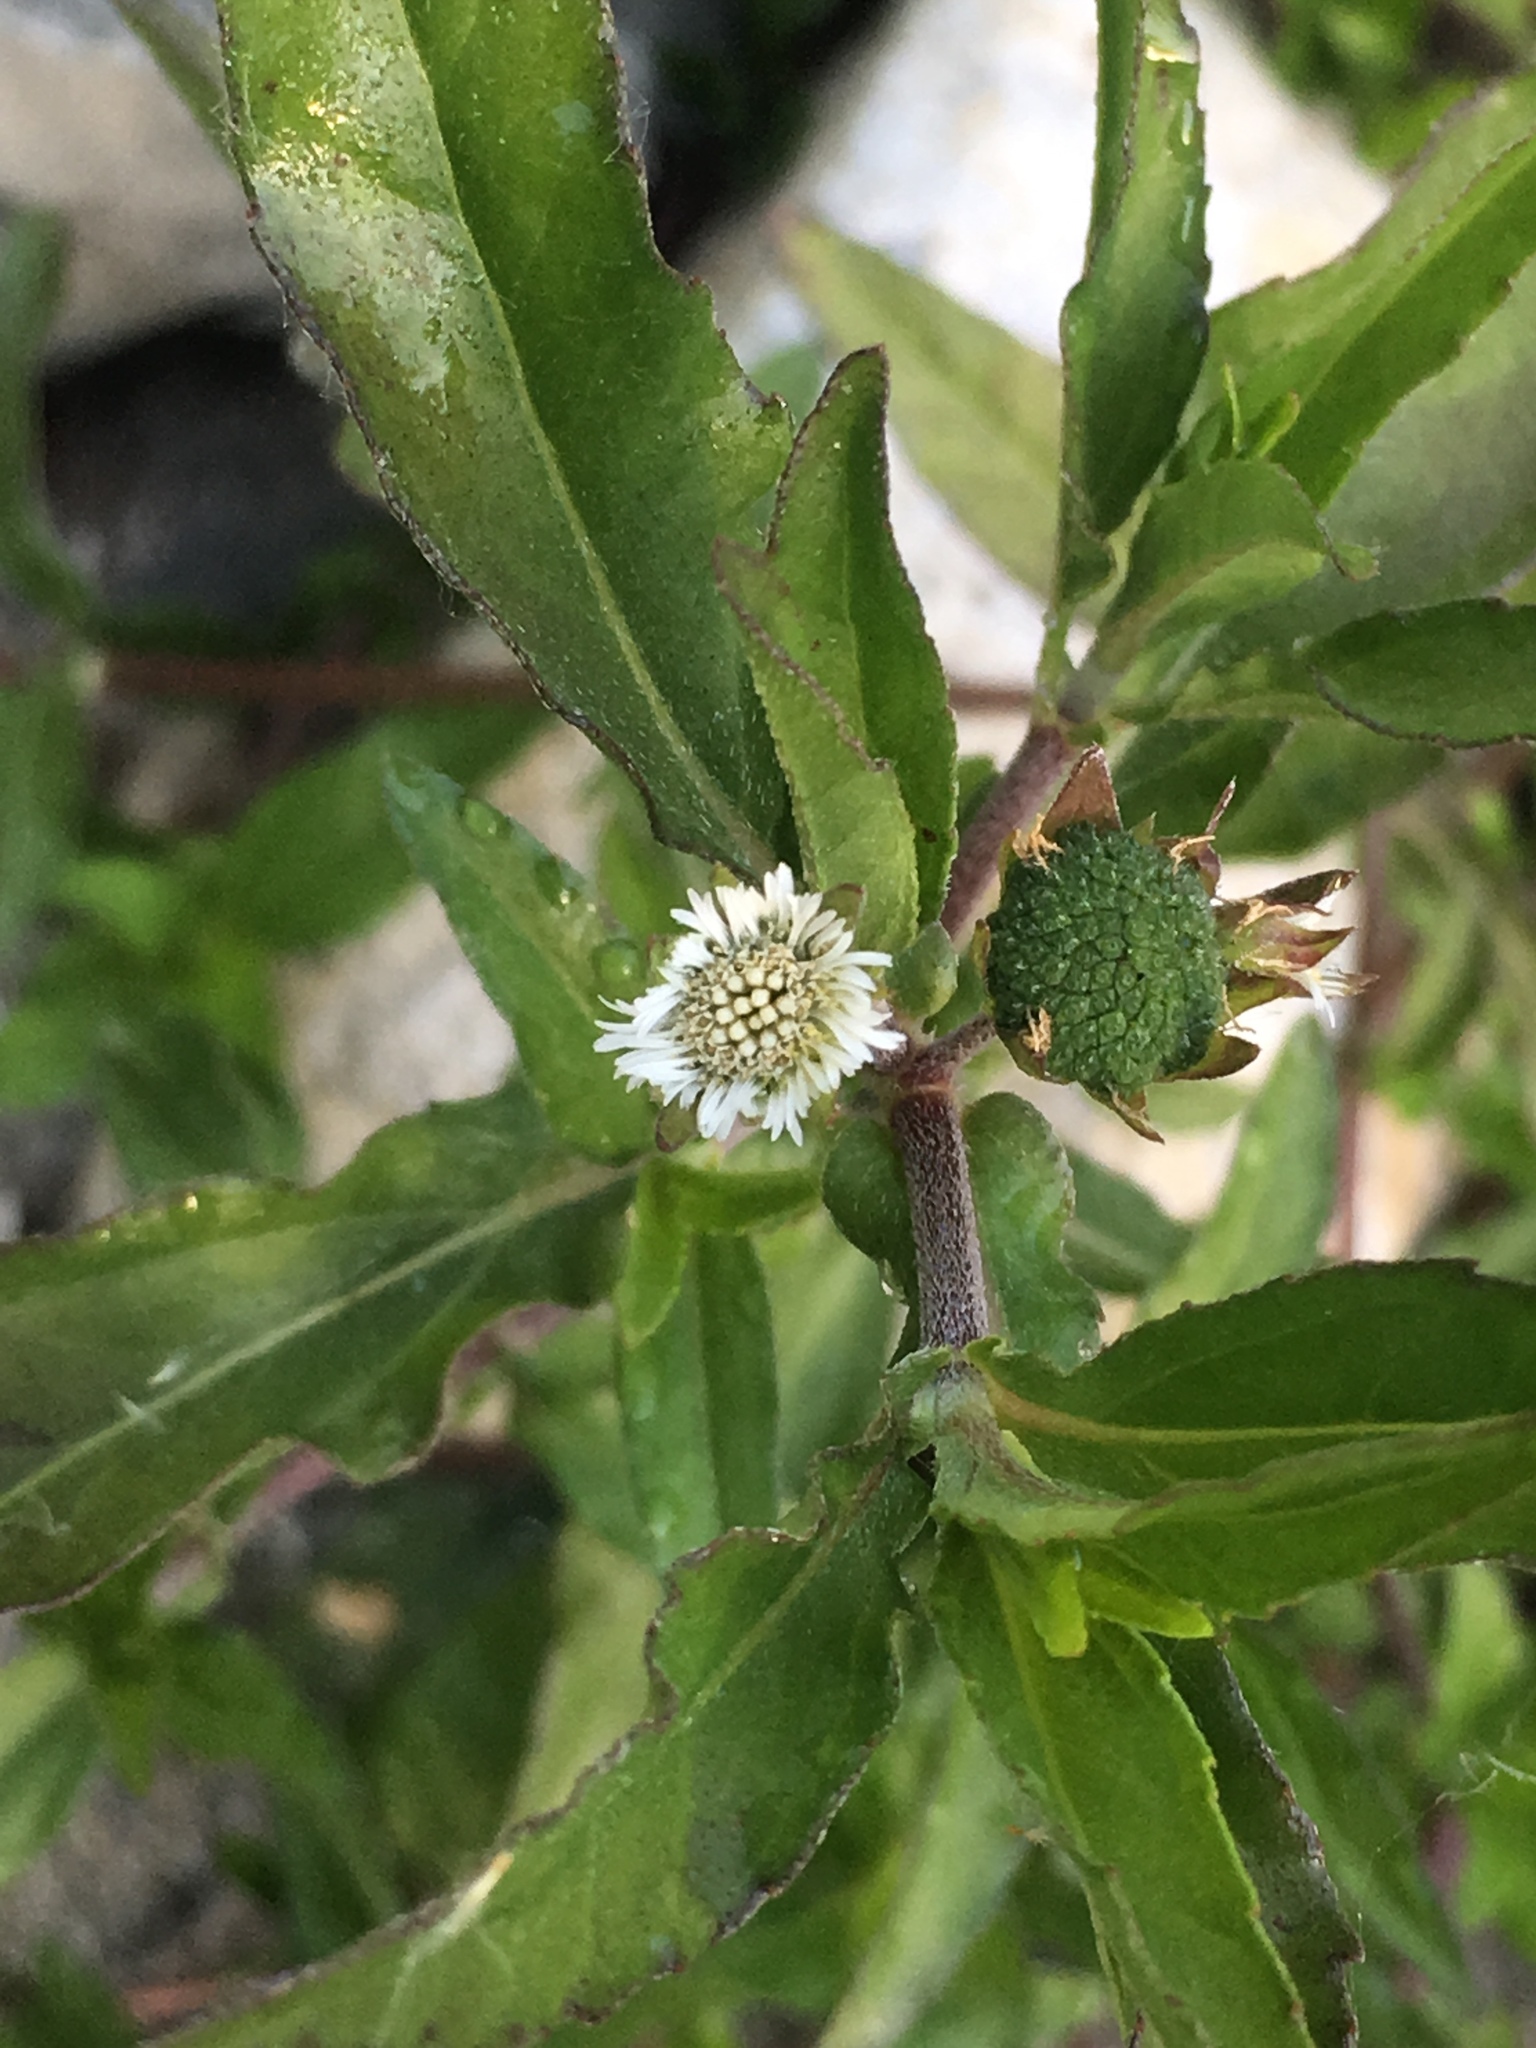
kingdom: Plantae
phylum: Tracheophyta
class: Magnoliopsida
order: Asterales
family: Asteraceae
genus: Eclipta
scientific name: Eclipta prostrata
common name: False daisy
